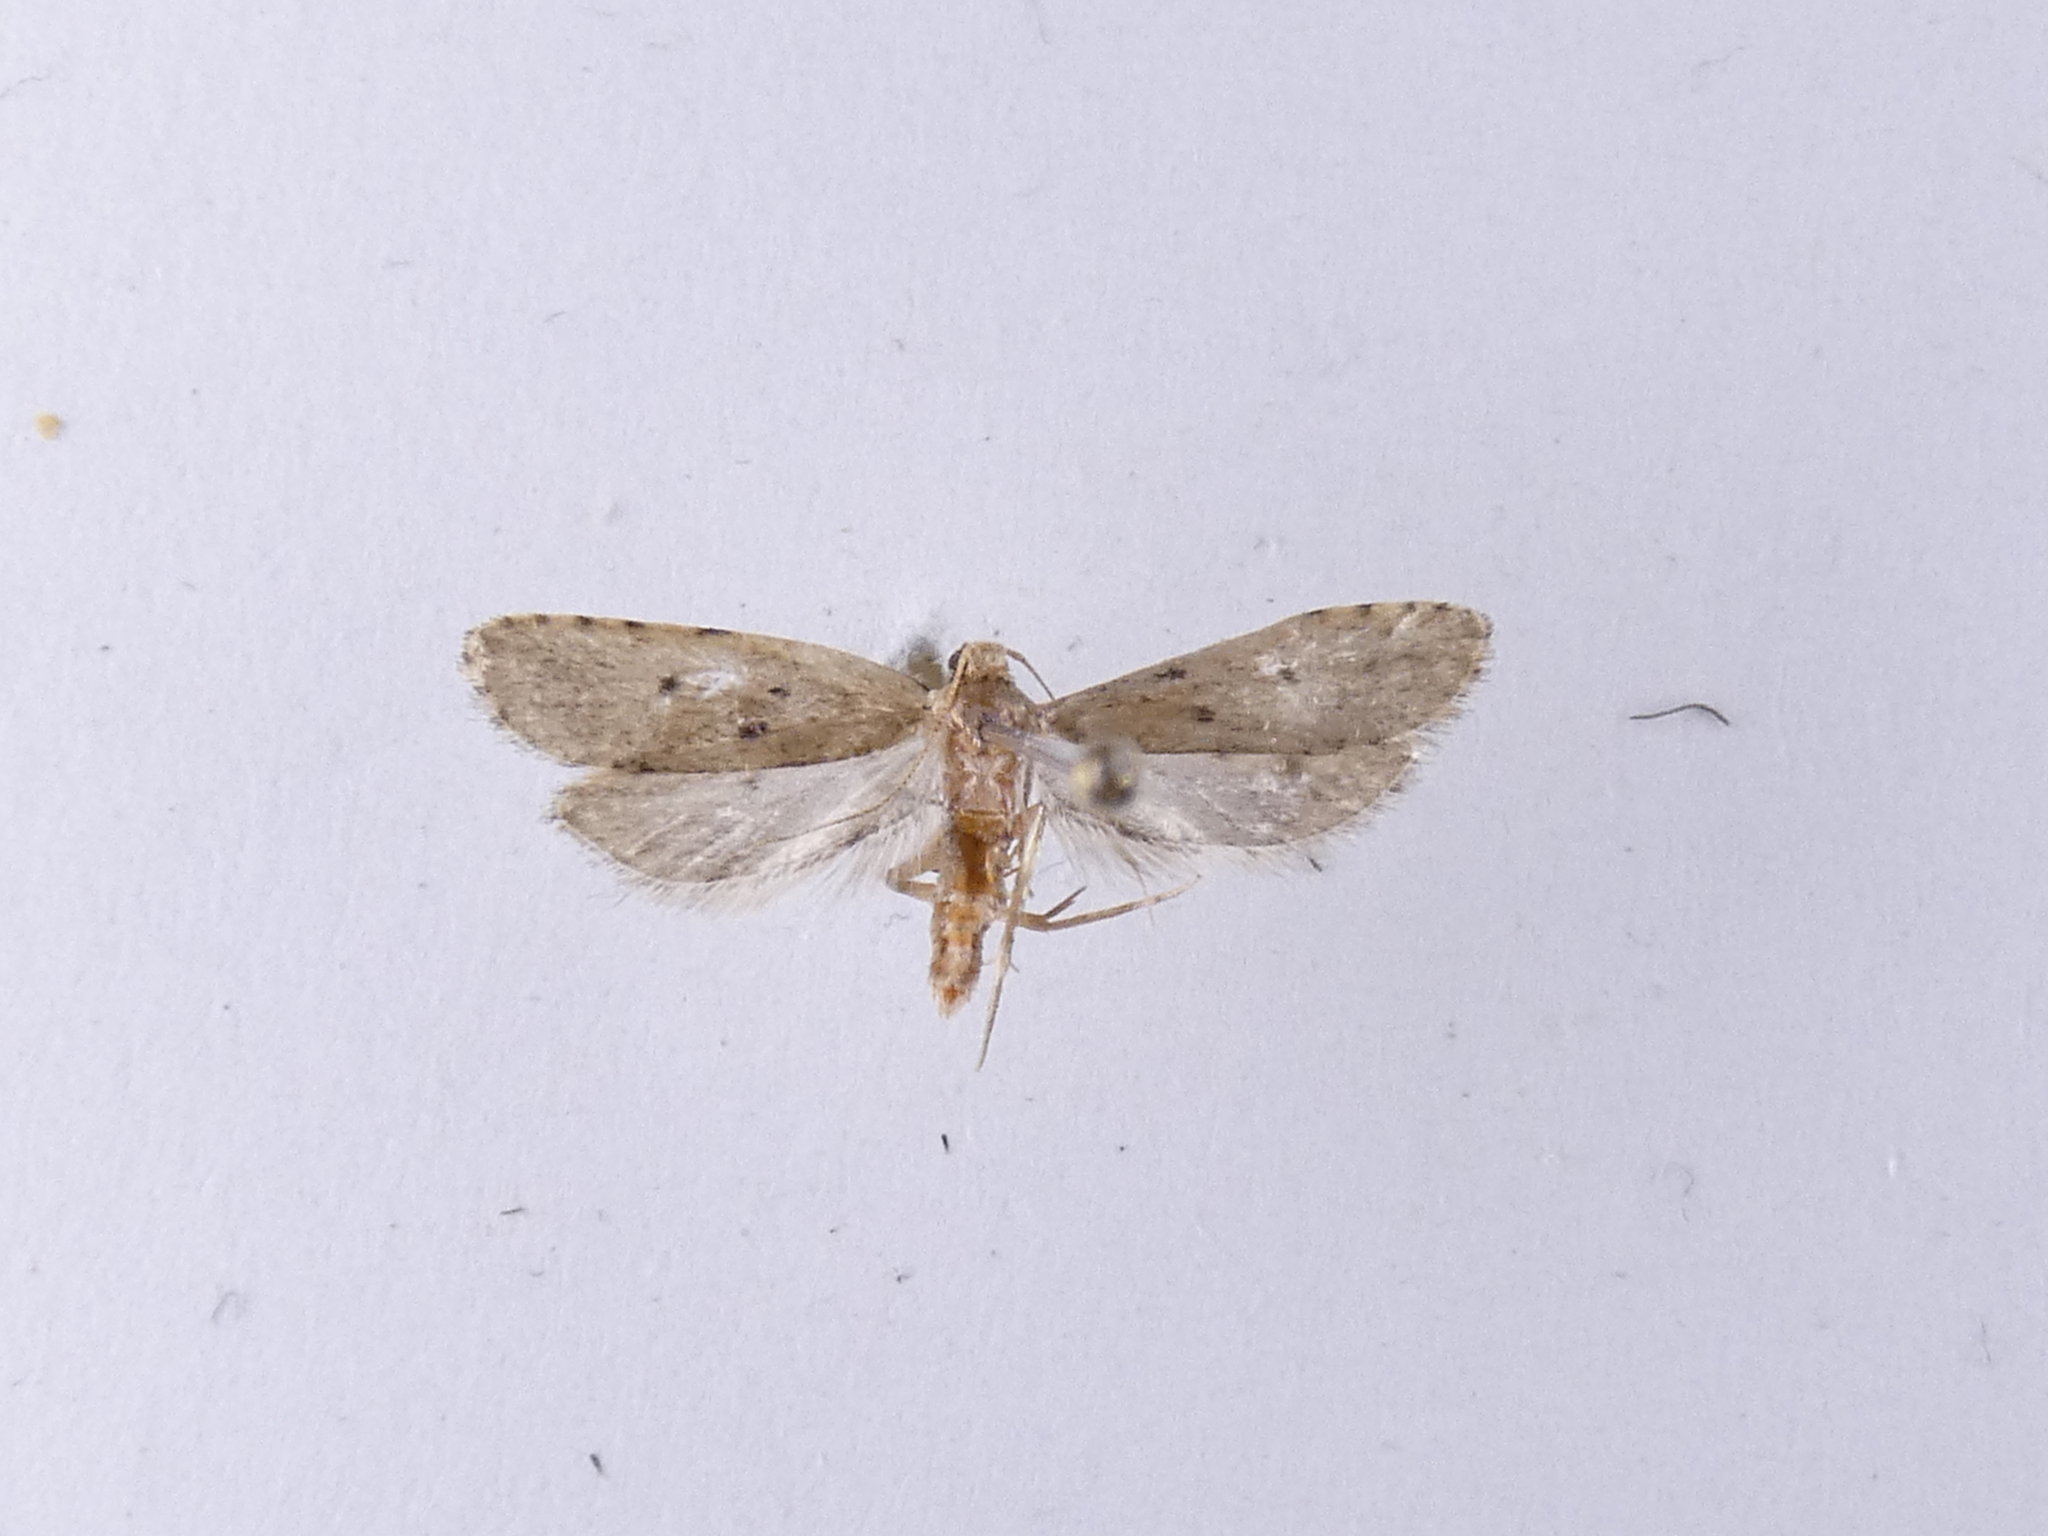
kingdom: Animalia
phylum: Arthropoda
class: Insecta
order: Lepidoptera
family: Oecophoridae
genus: Gymnobathra
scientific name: Gymnobathra calliploca
